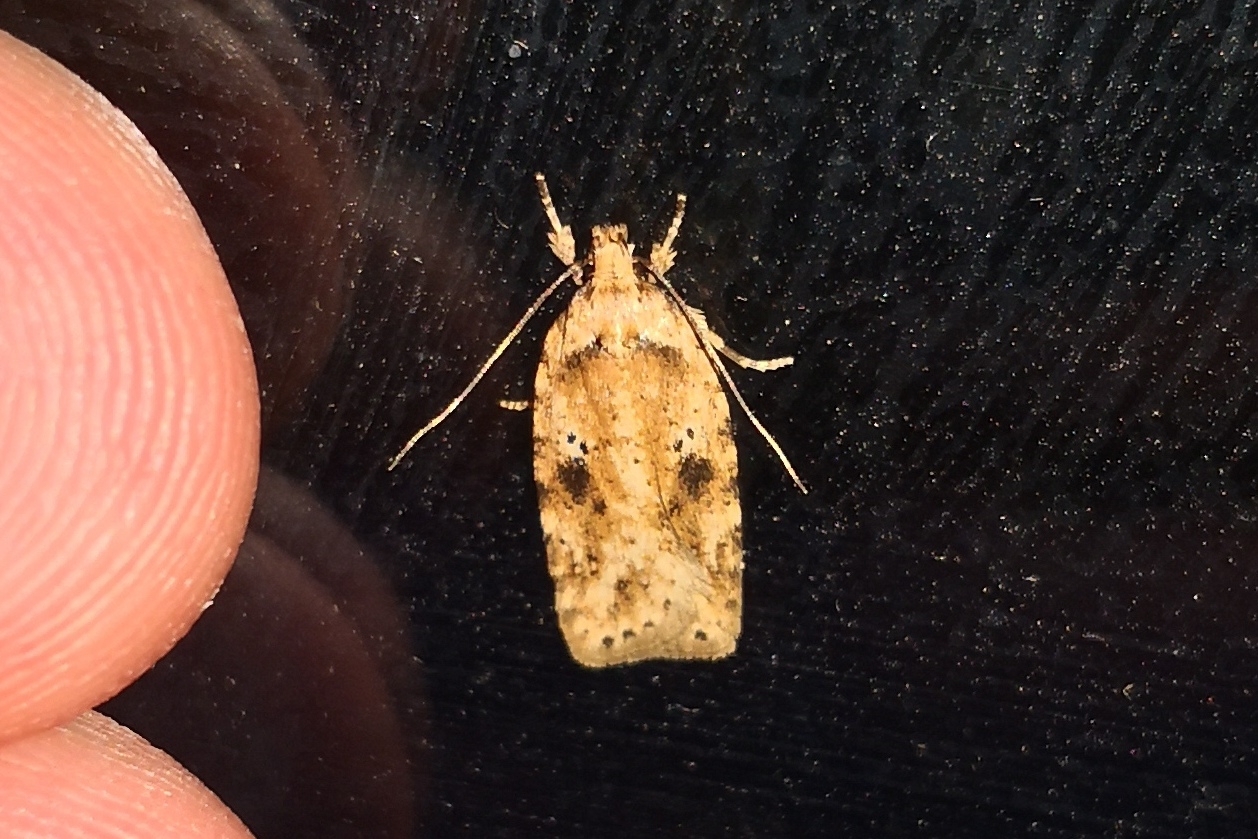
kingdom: Animalia
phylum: Arthropoda
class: Insecta
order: Lepidoptera
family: Depressariidae
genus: Agonopterix
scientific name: Agonopterix arenella
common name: Brindled flat-body
